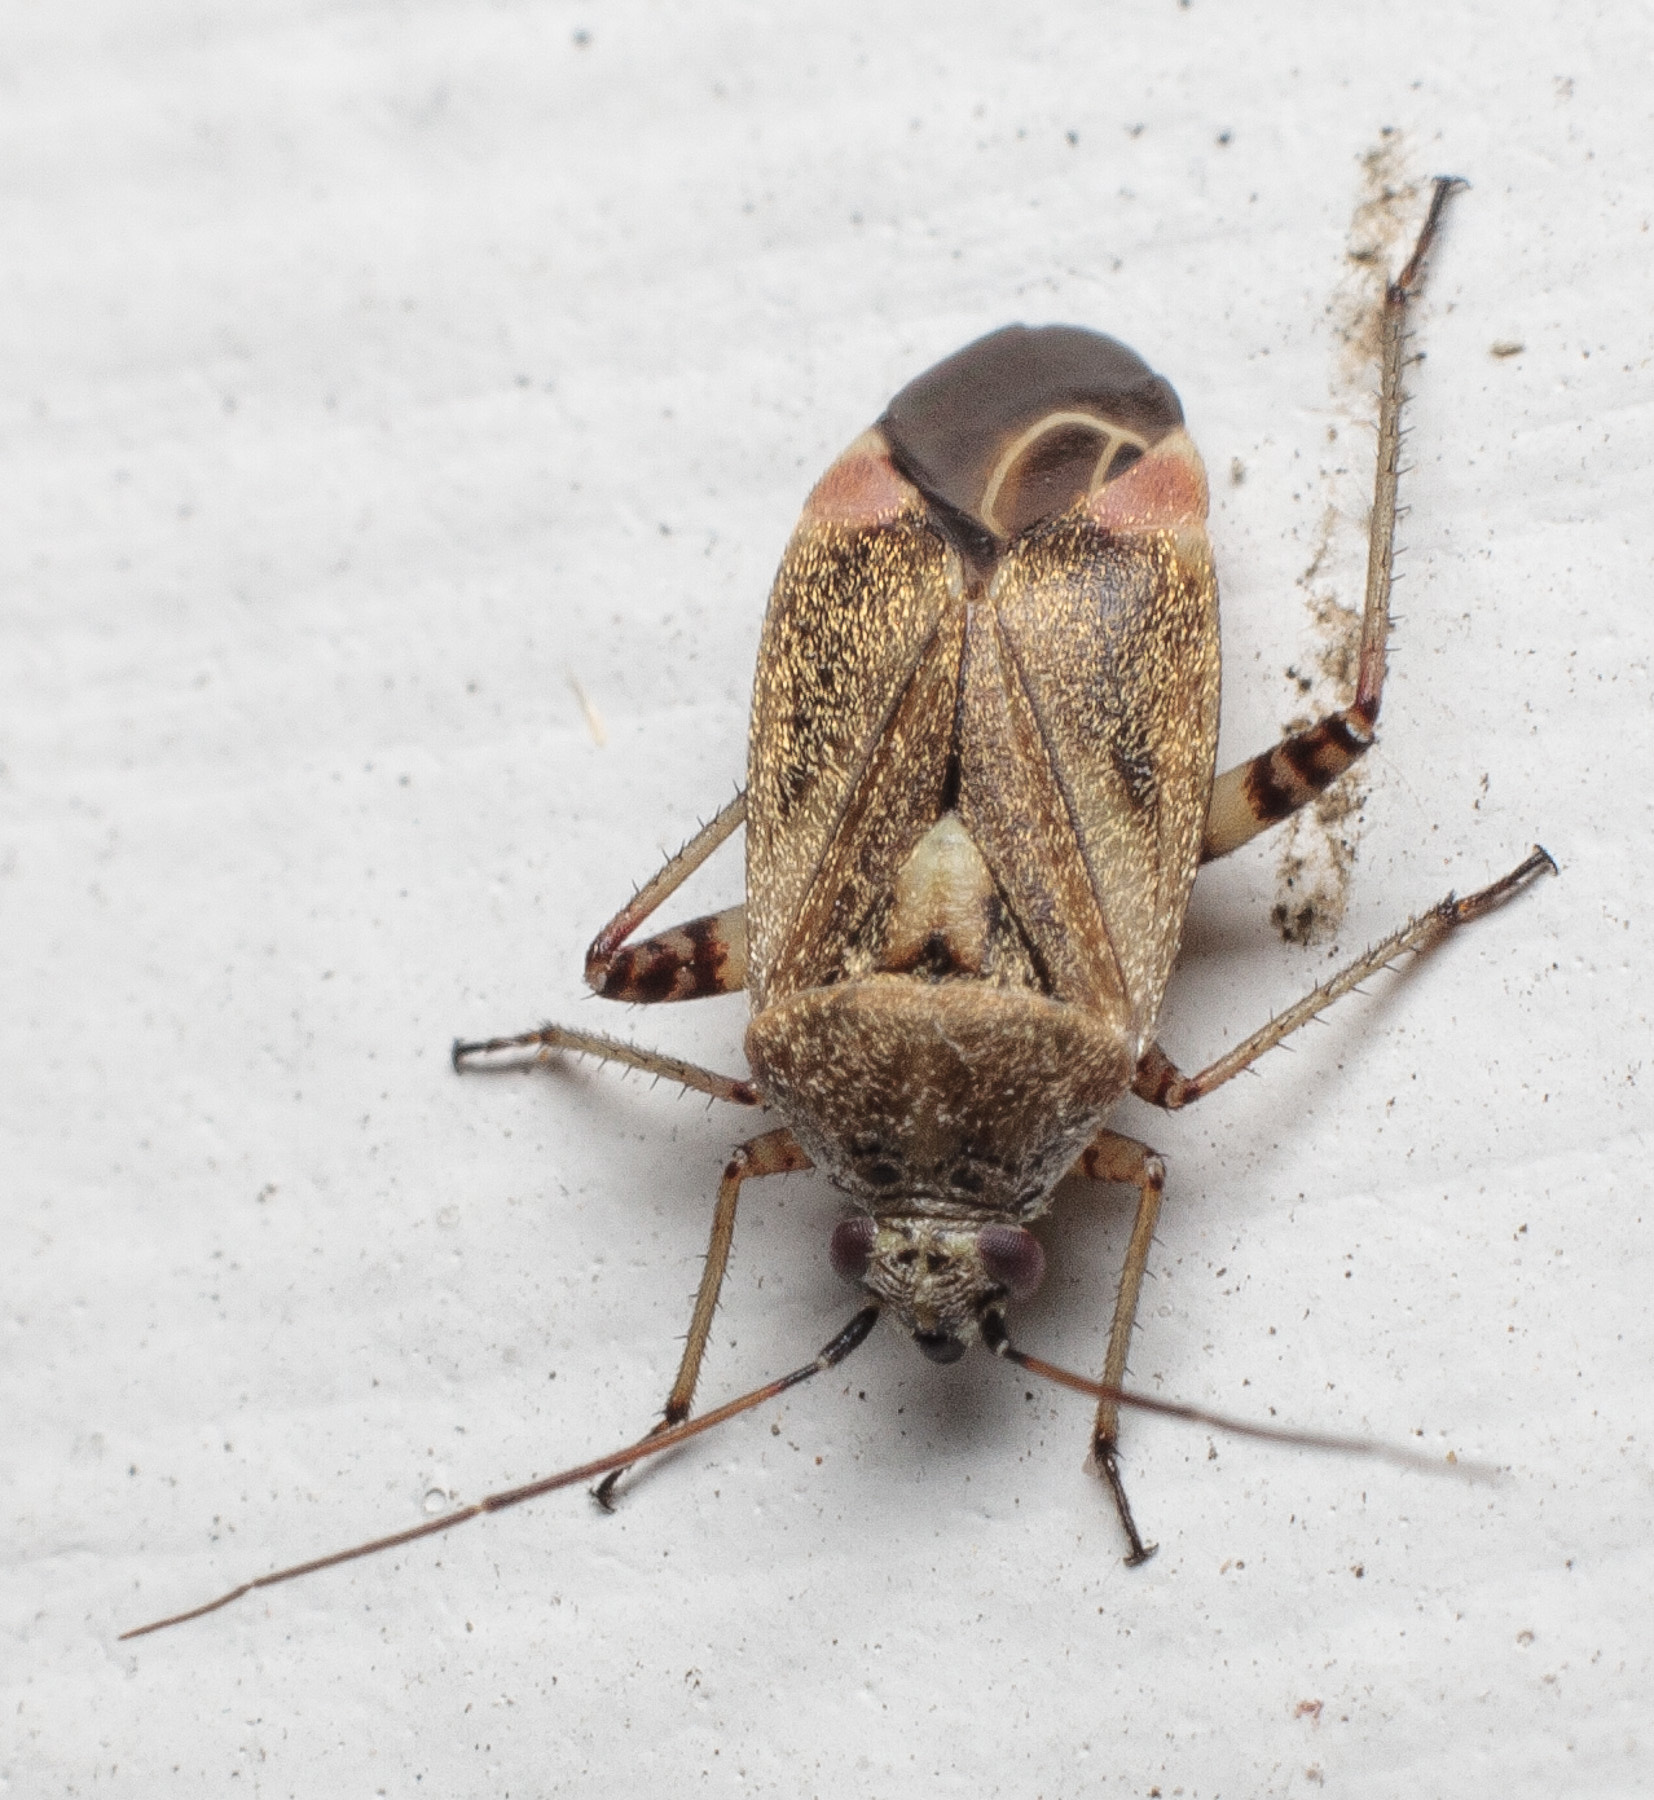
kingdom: Animalia
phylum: Arthropoda
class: Insecta
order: Hemiptera
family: Miridae
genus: Polymerus
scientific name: Polymerus basalis
